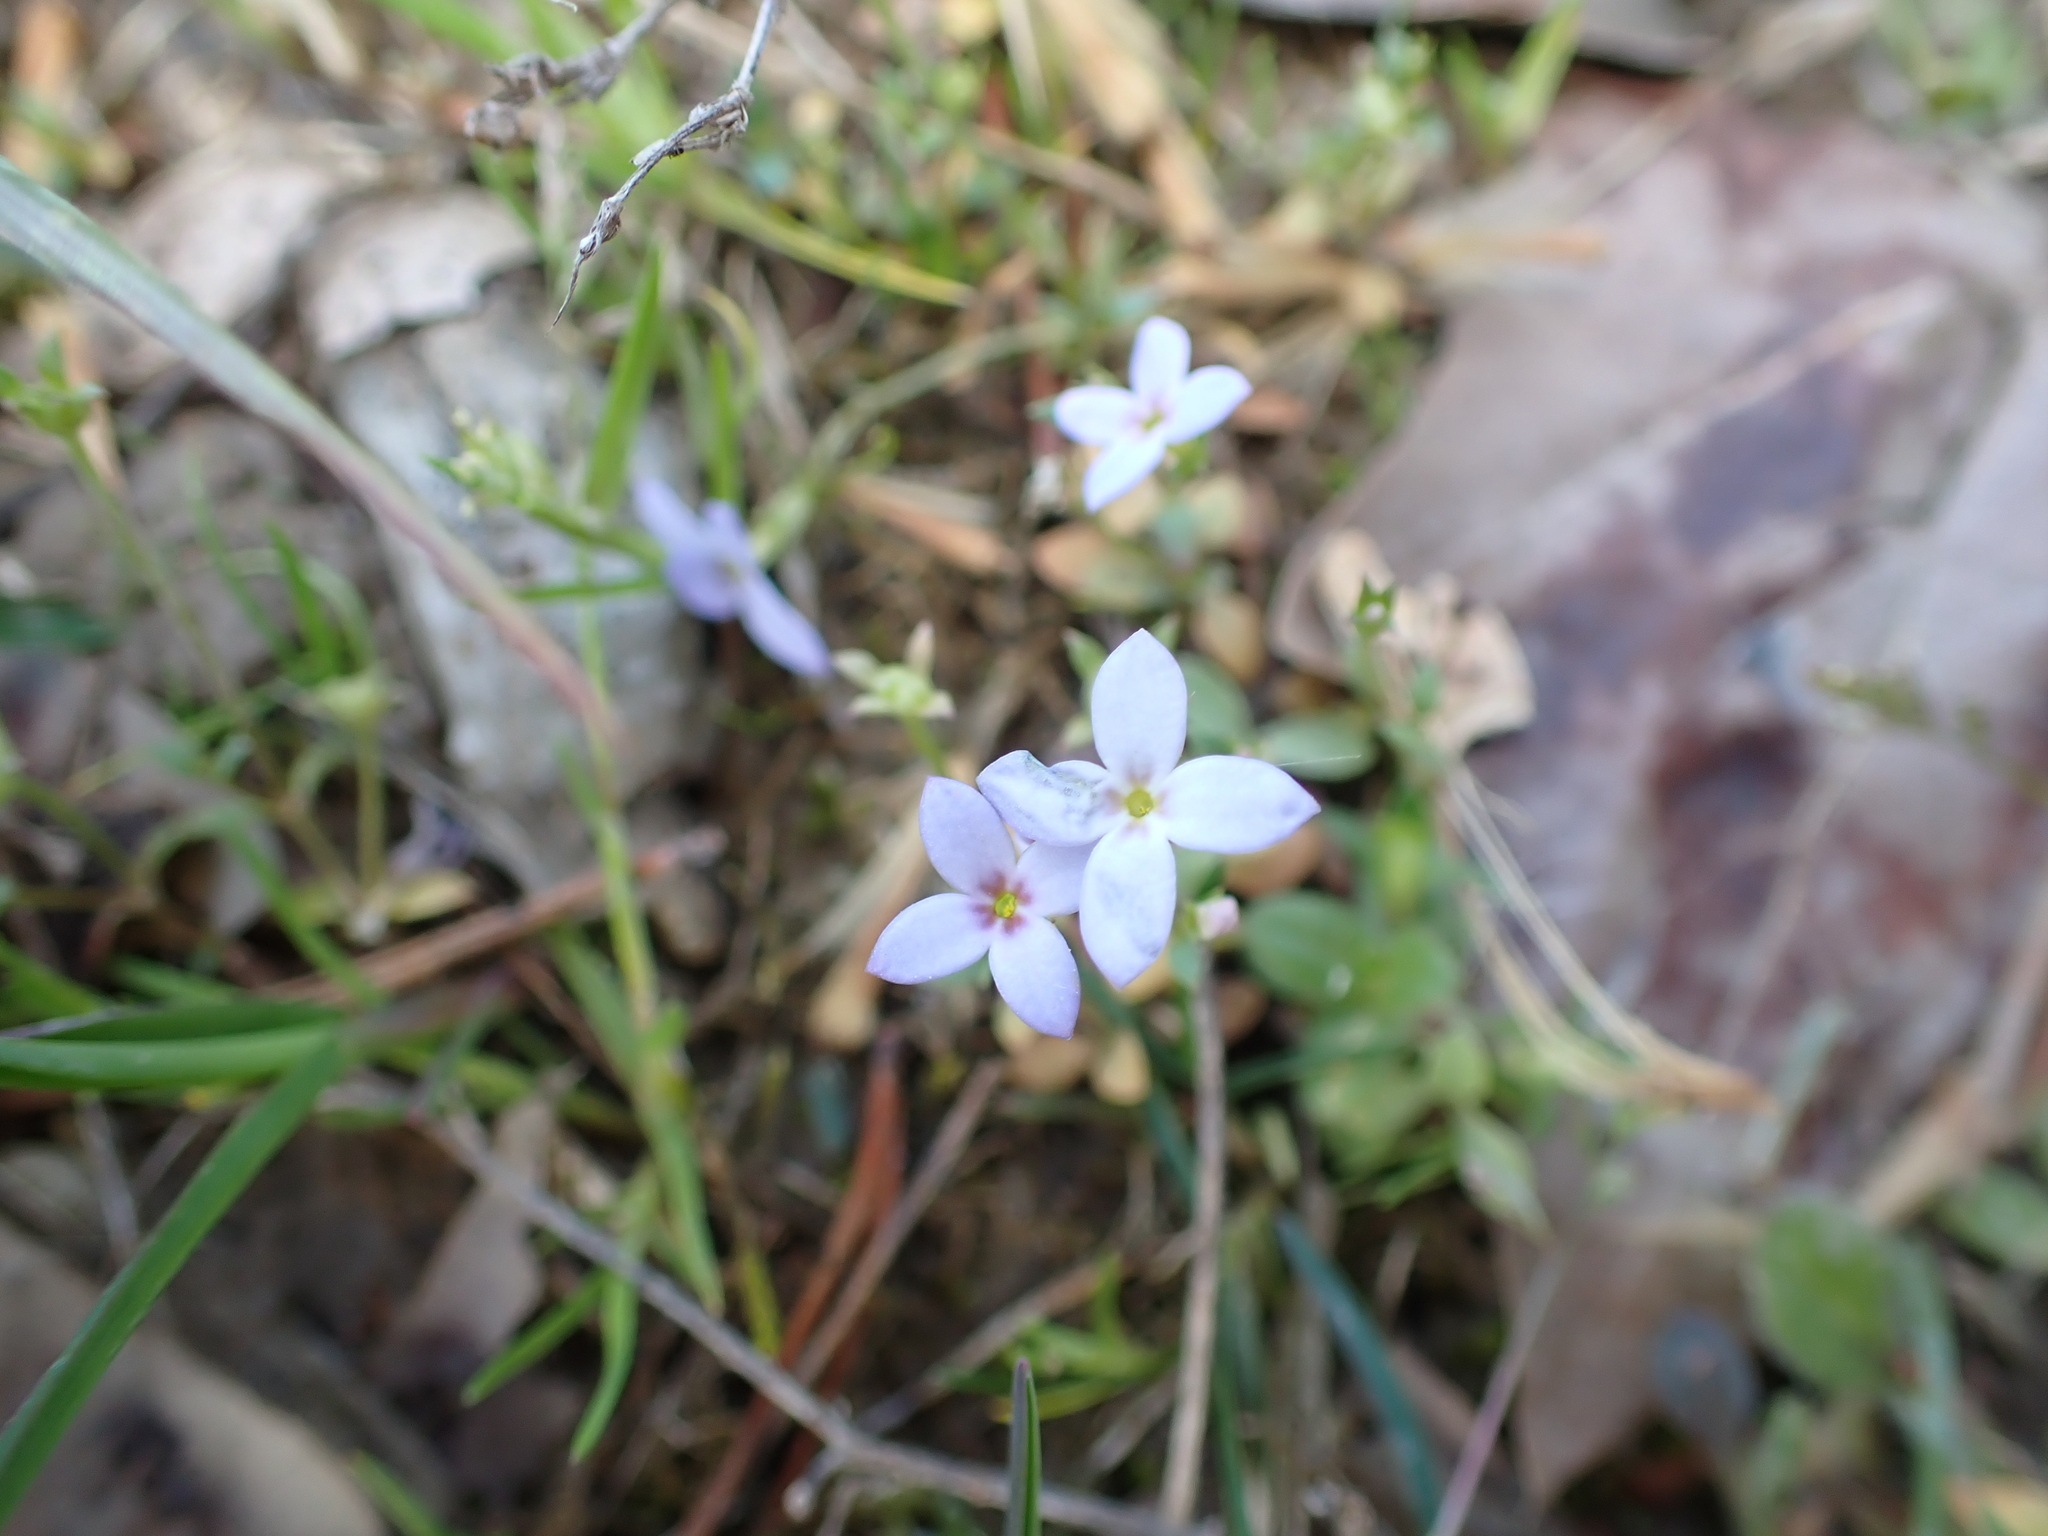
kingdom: Plantae
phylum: Tracheophyta
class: Magnoliopsida
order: Gentianales
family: Rubiaceae
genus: Houstonia
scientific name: Houstonia pusilla
